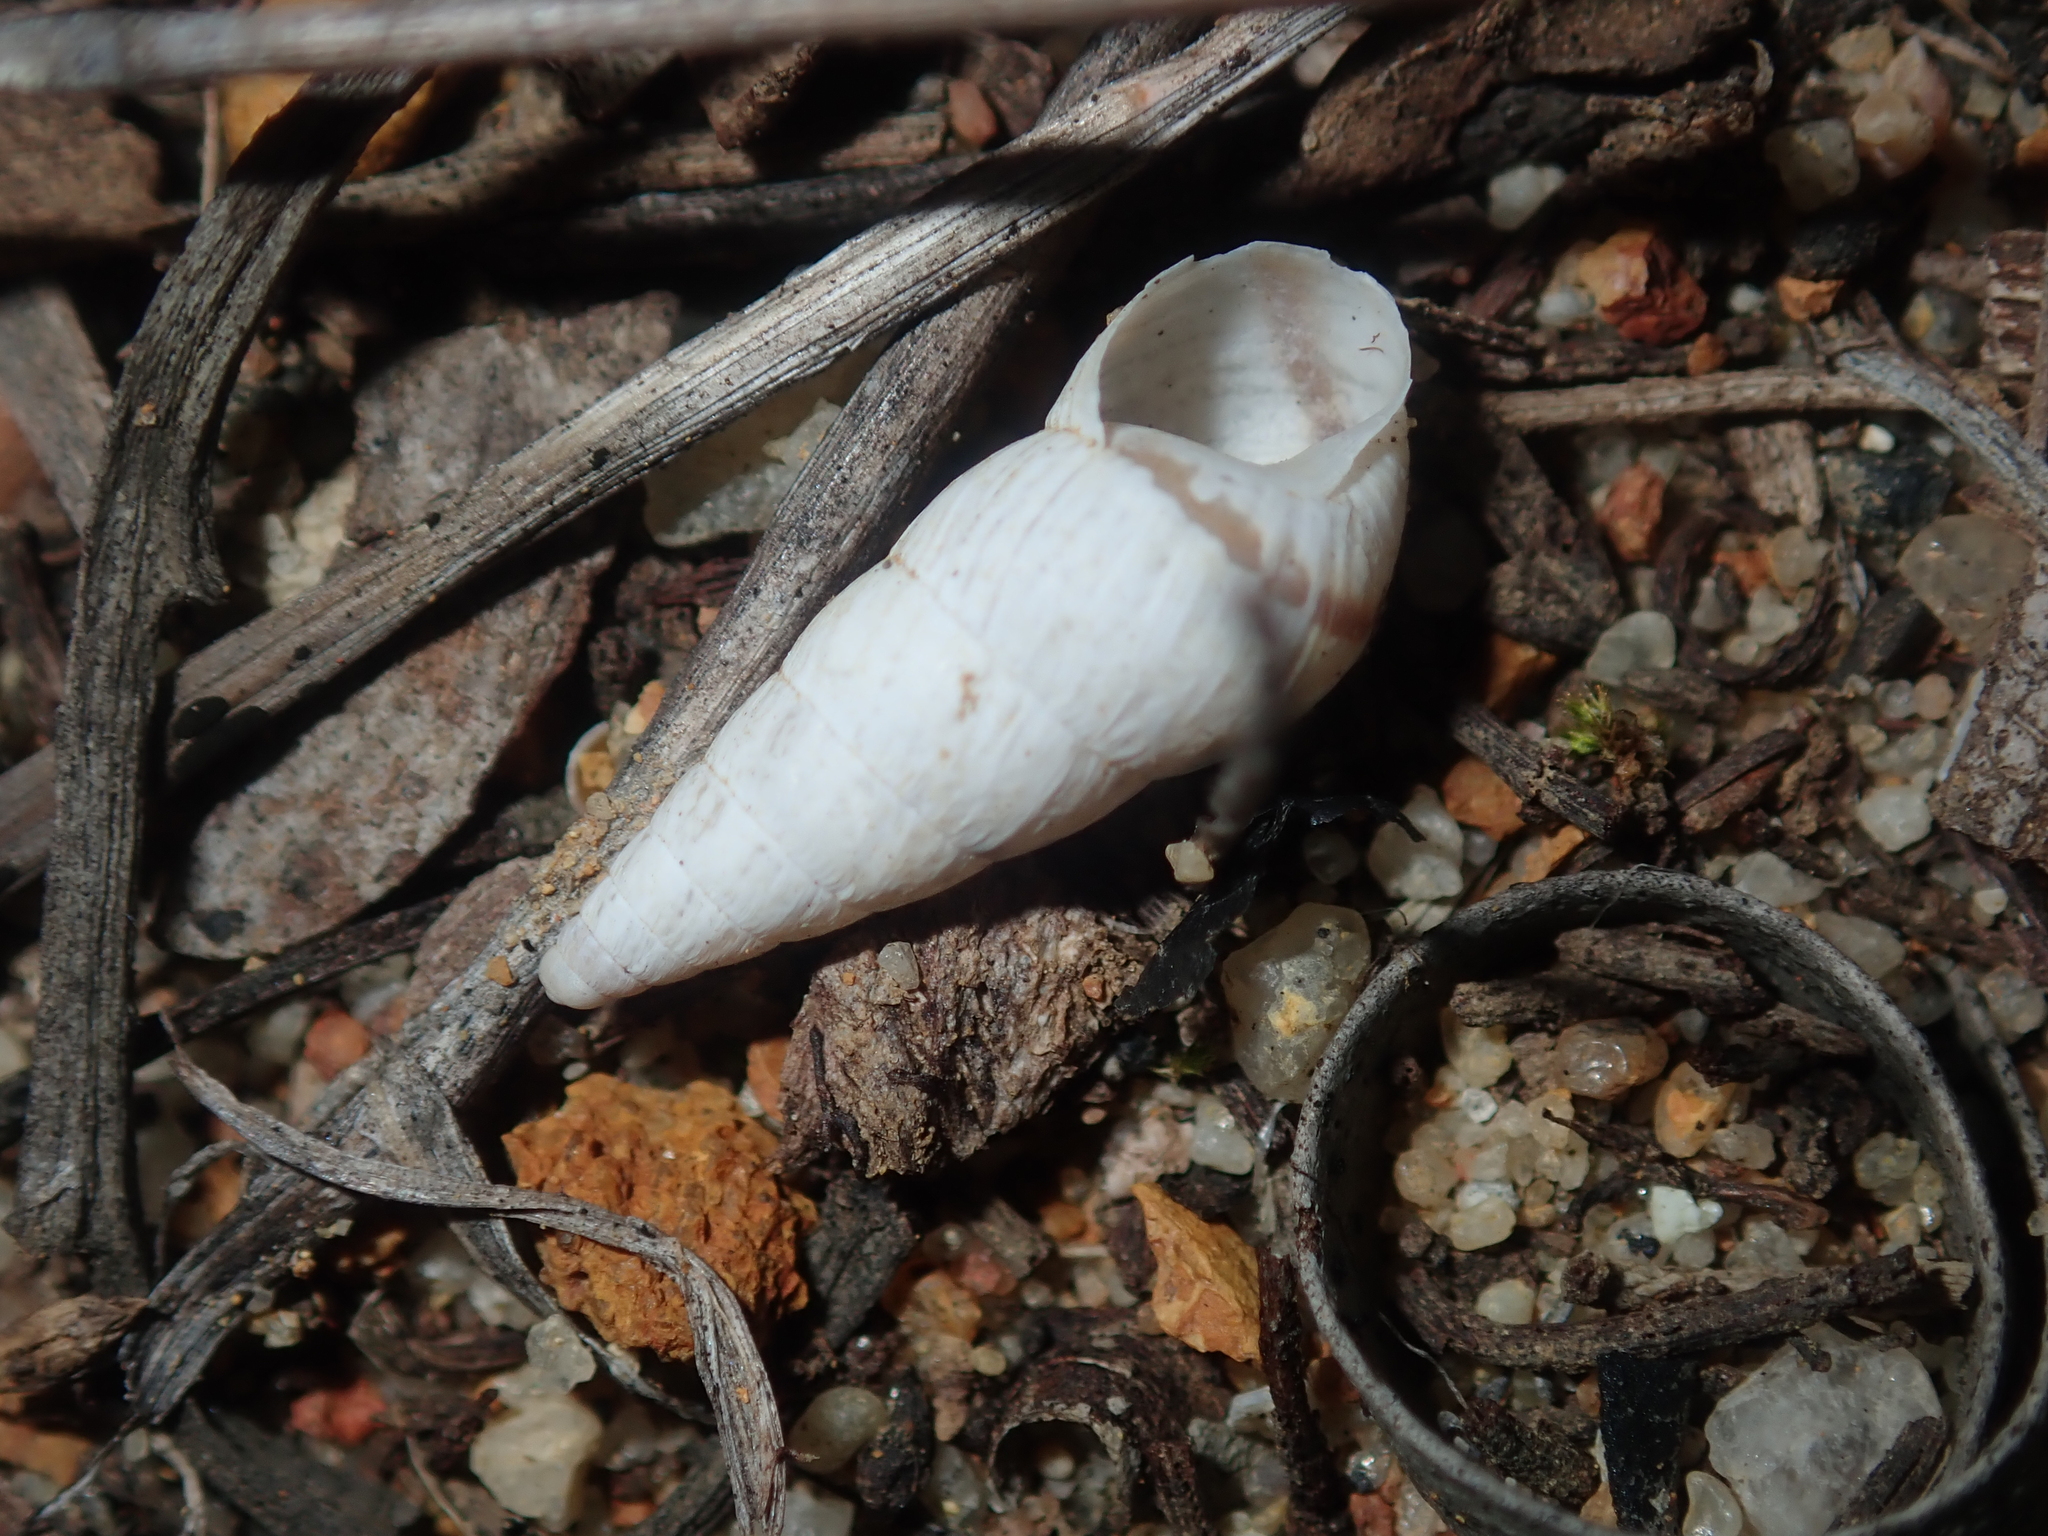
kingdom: Animalia
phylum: Mollusca
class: Gastropoda
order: Stylommatophora
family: Geomitridae
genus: Cochlicella
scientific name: Cochlicella acuta
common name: Pointed snail
